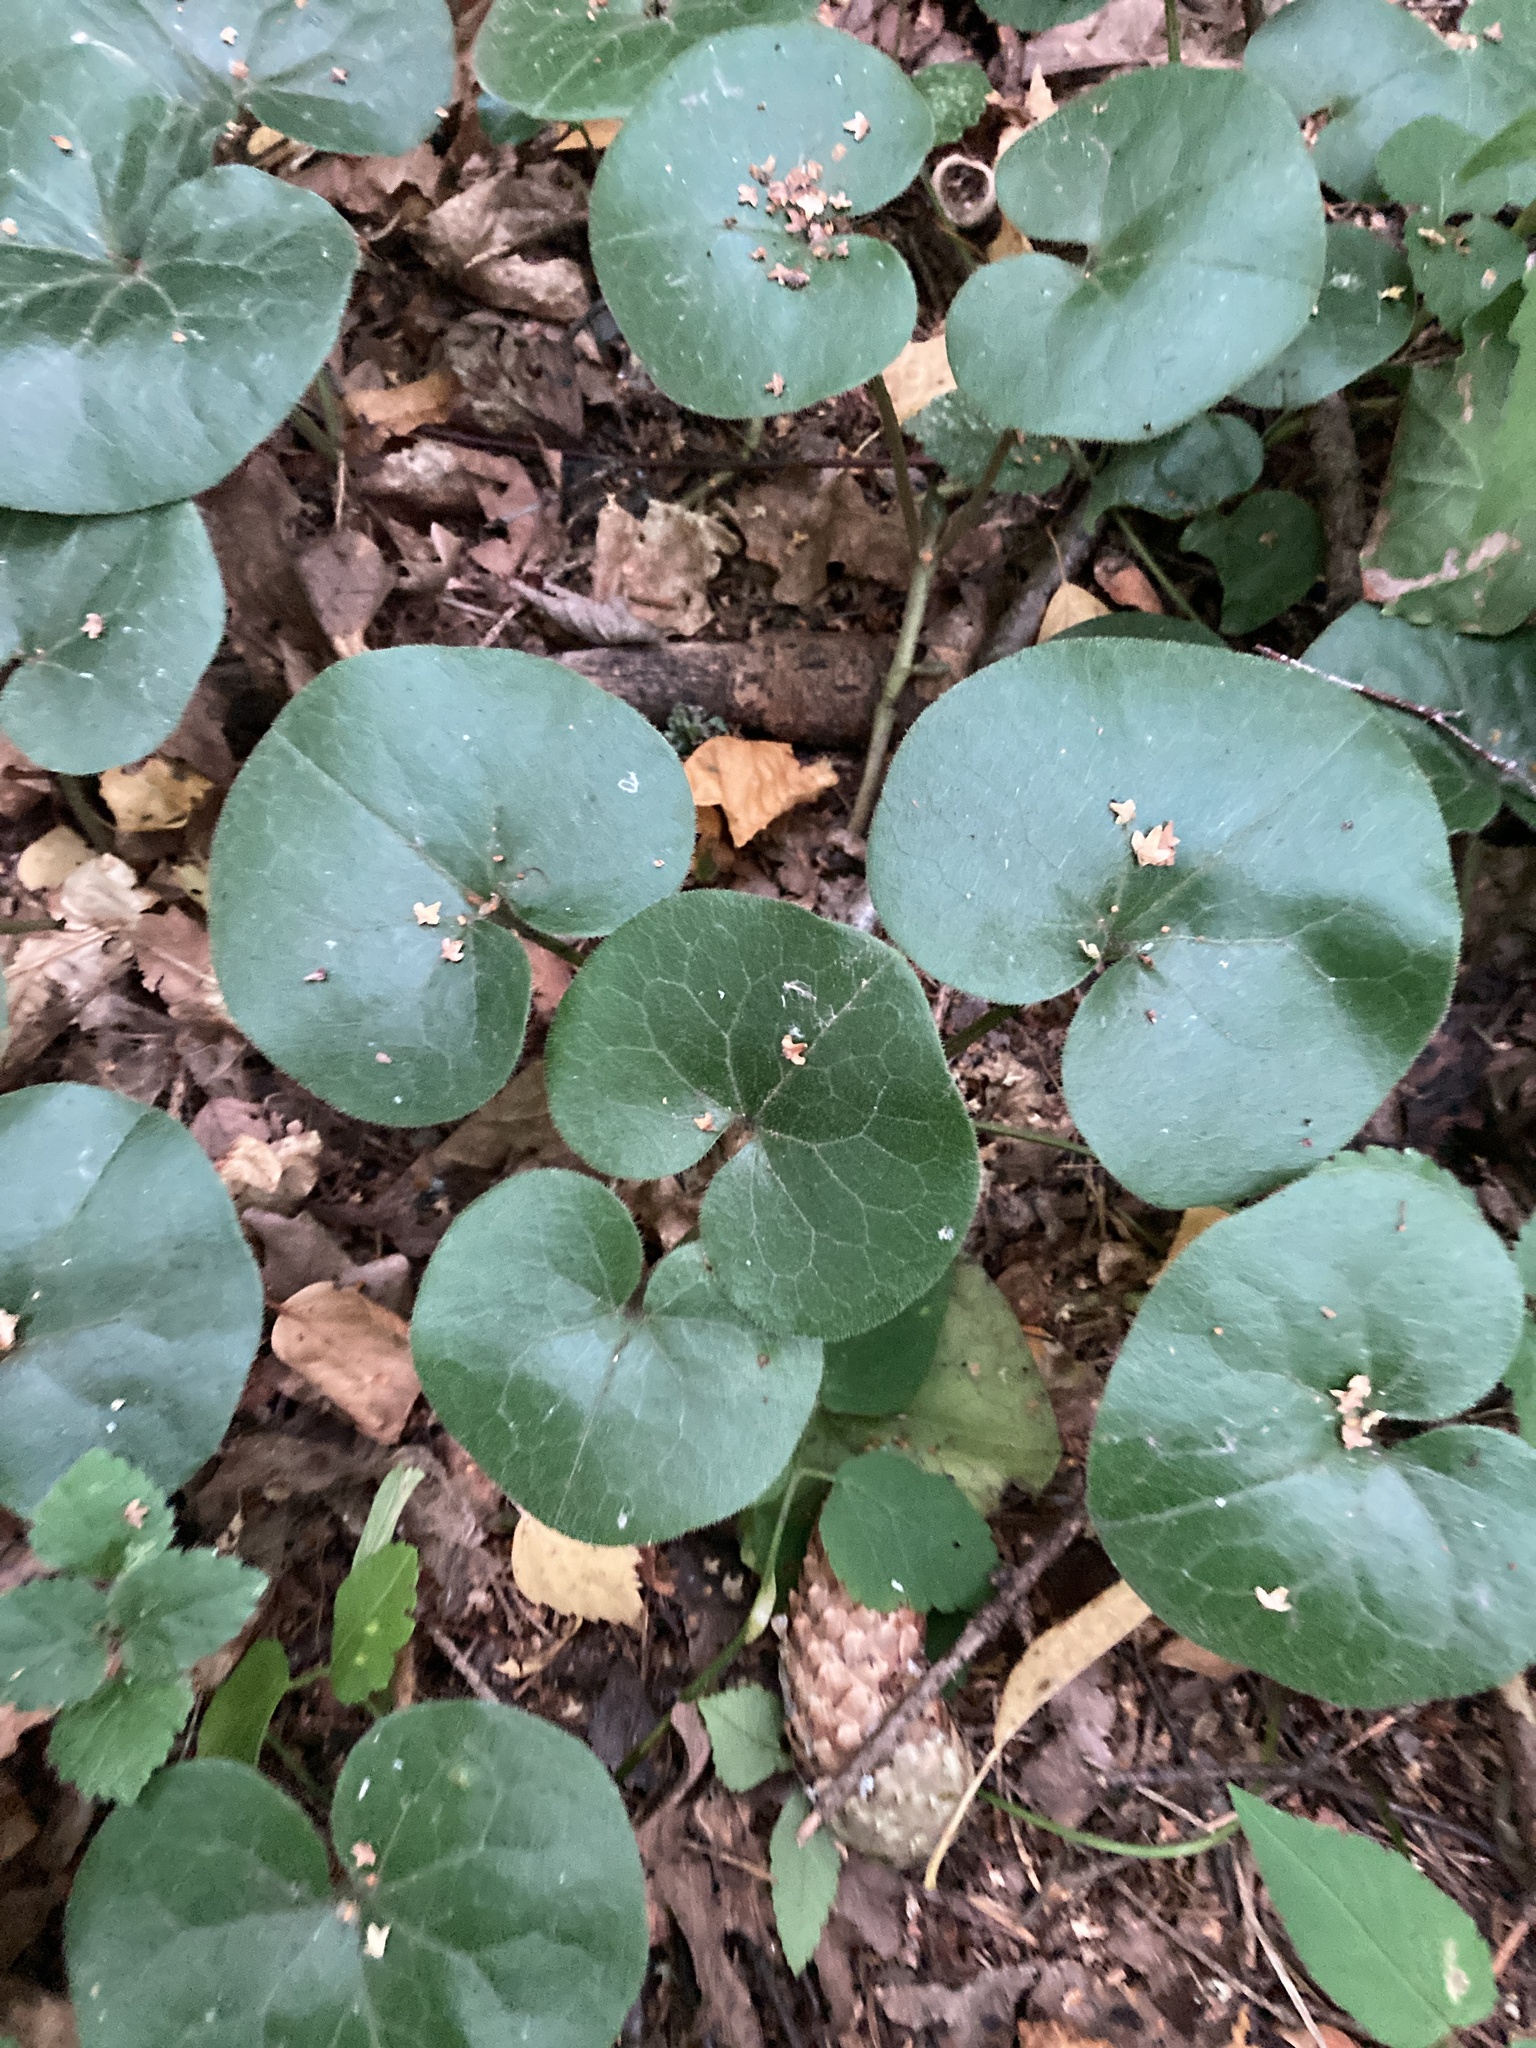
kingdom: Plantae
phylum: Tracheophyta
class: Magnoliopsida
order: Piperales
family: Aristolochiaceae
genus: Asarum
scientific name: Asarum europaeum
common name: Asarabacca
